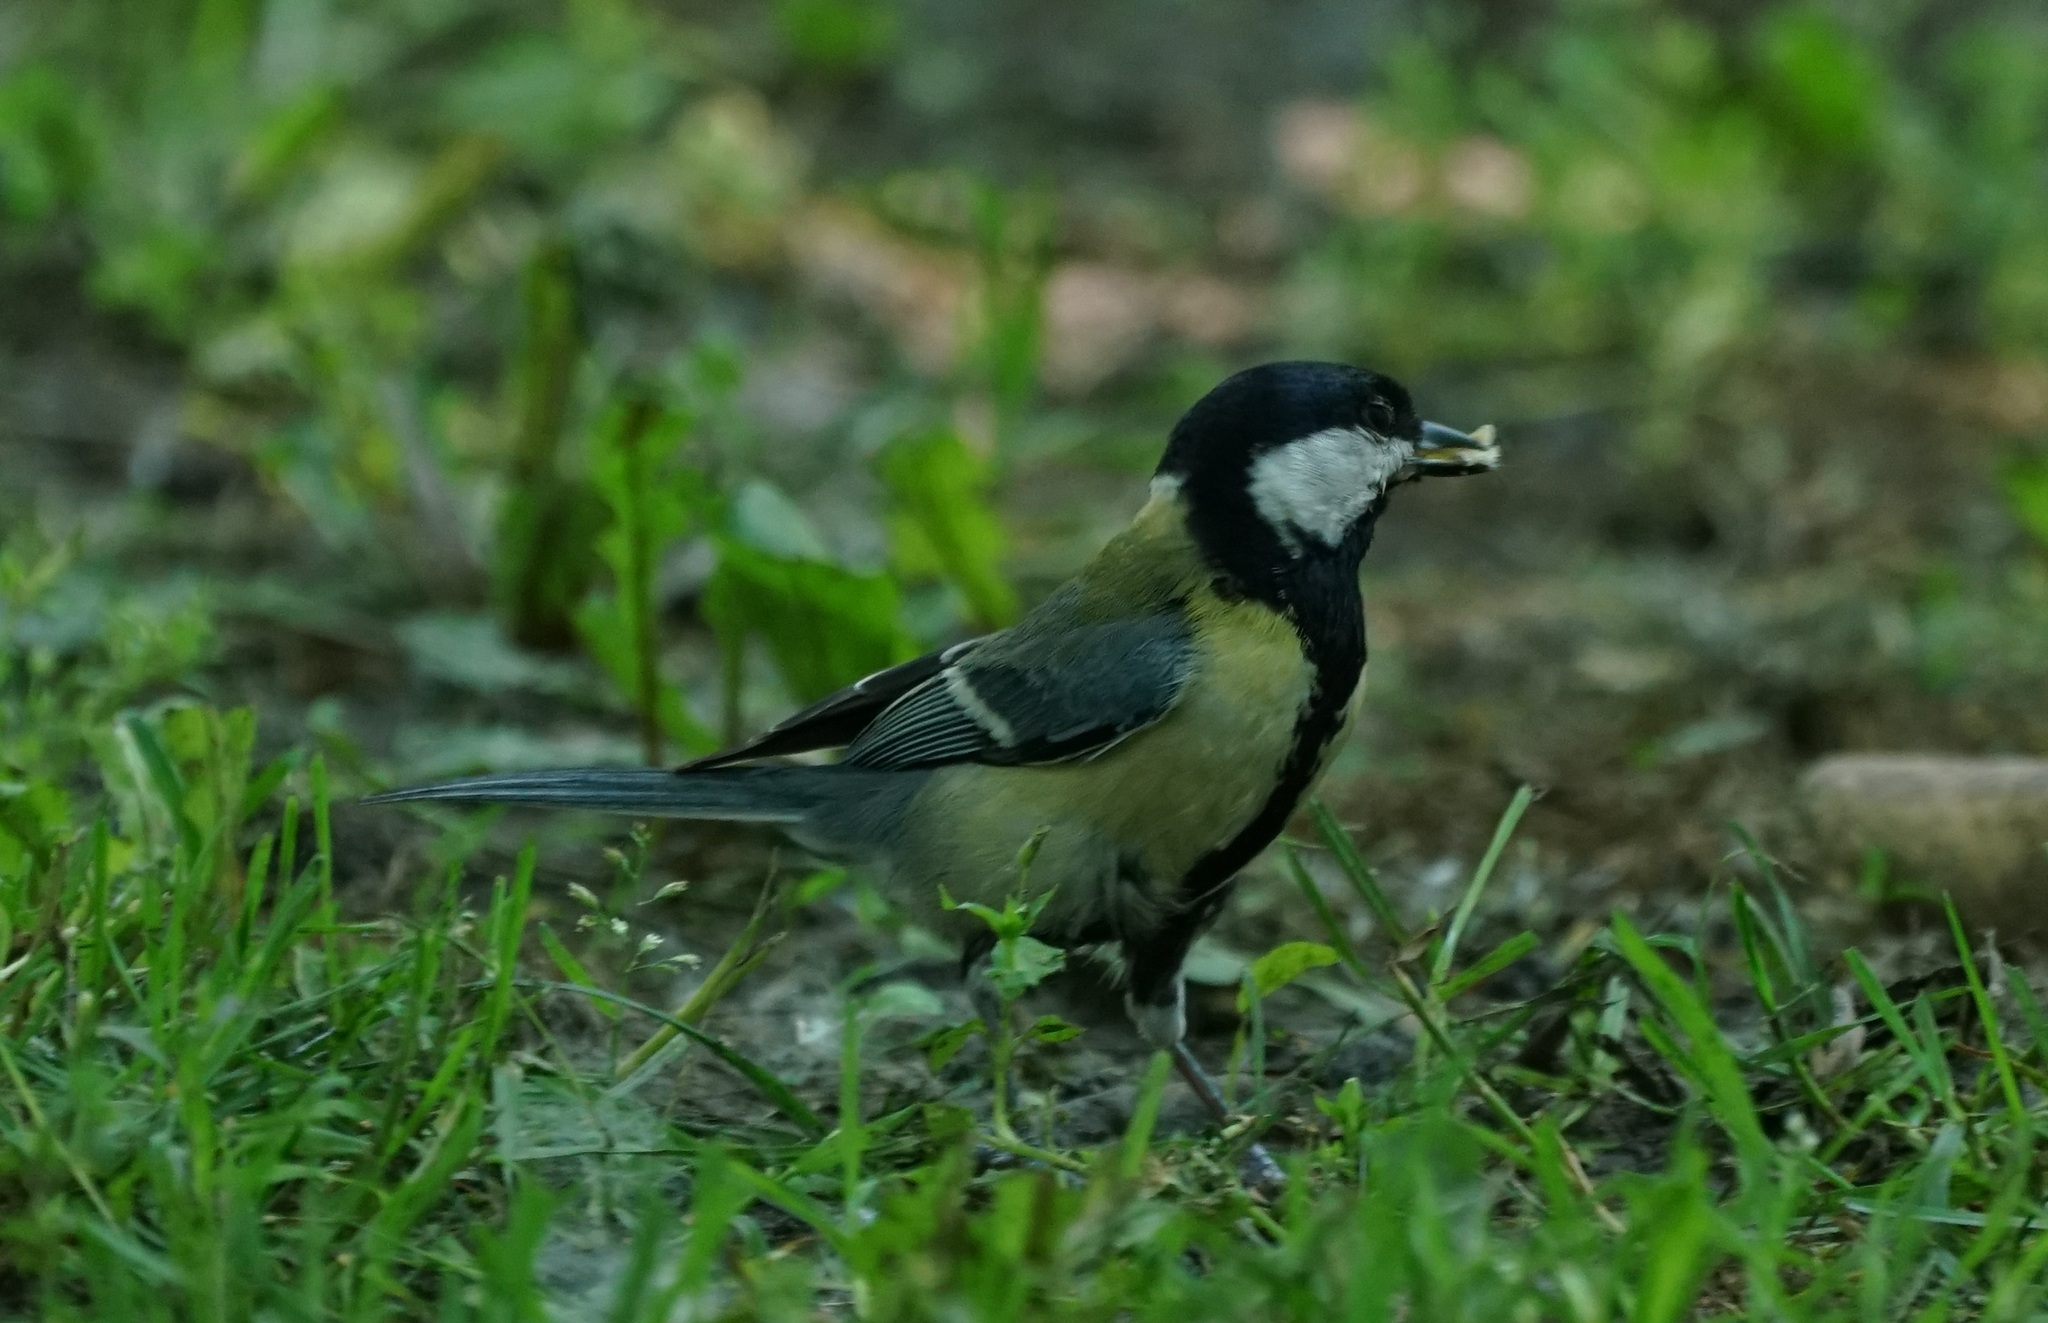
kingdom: Animalia
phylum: Chordata
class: Aves
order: Passeriformes
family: Paridae
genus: Parus
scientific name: Parus major
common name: Great tit
